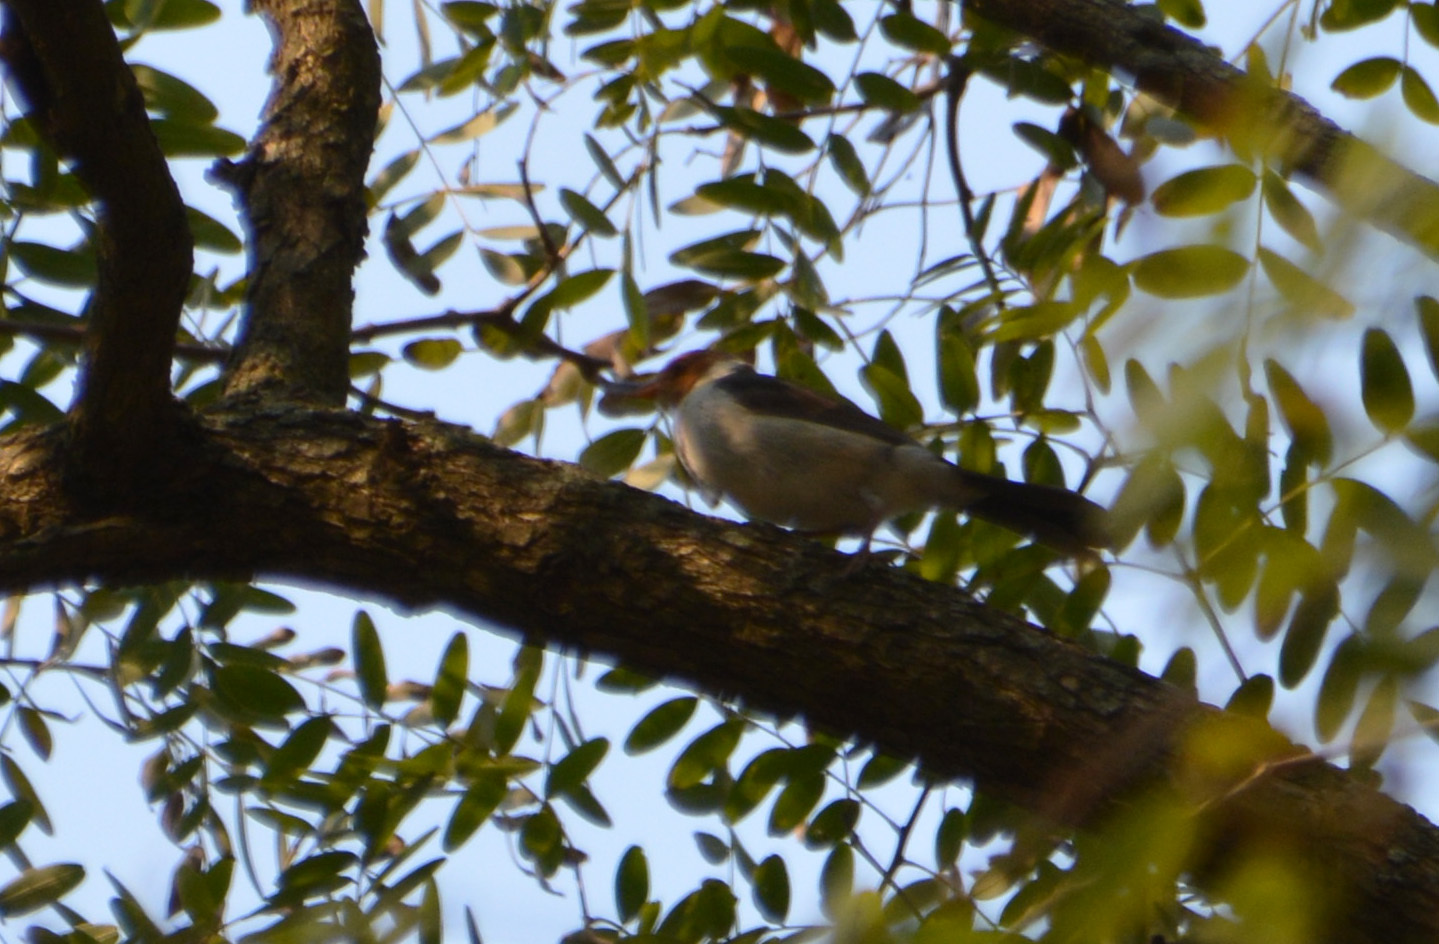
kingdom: Animalia
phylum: Chordata
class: Aves
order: Passeriformes
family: Thraupidae
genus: Paroaria
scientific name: Paroaria capitata
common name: Yellow-billed cardinal
